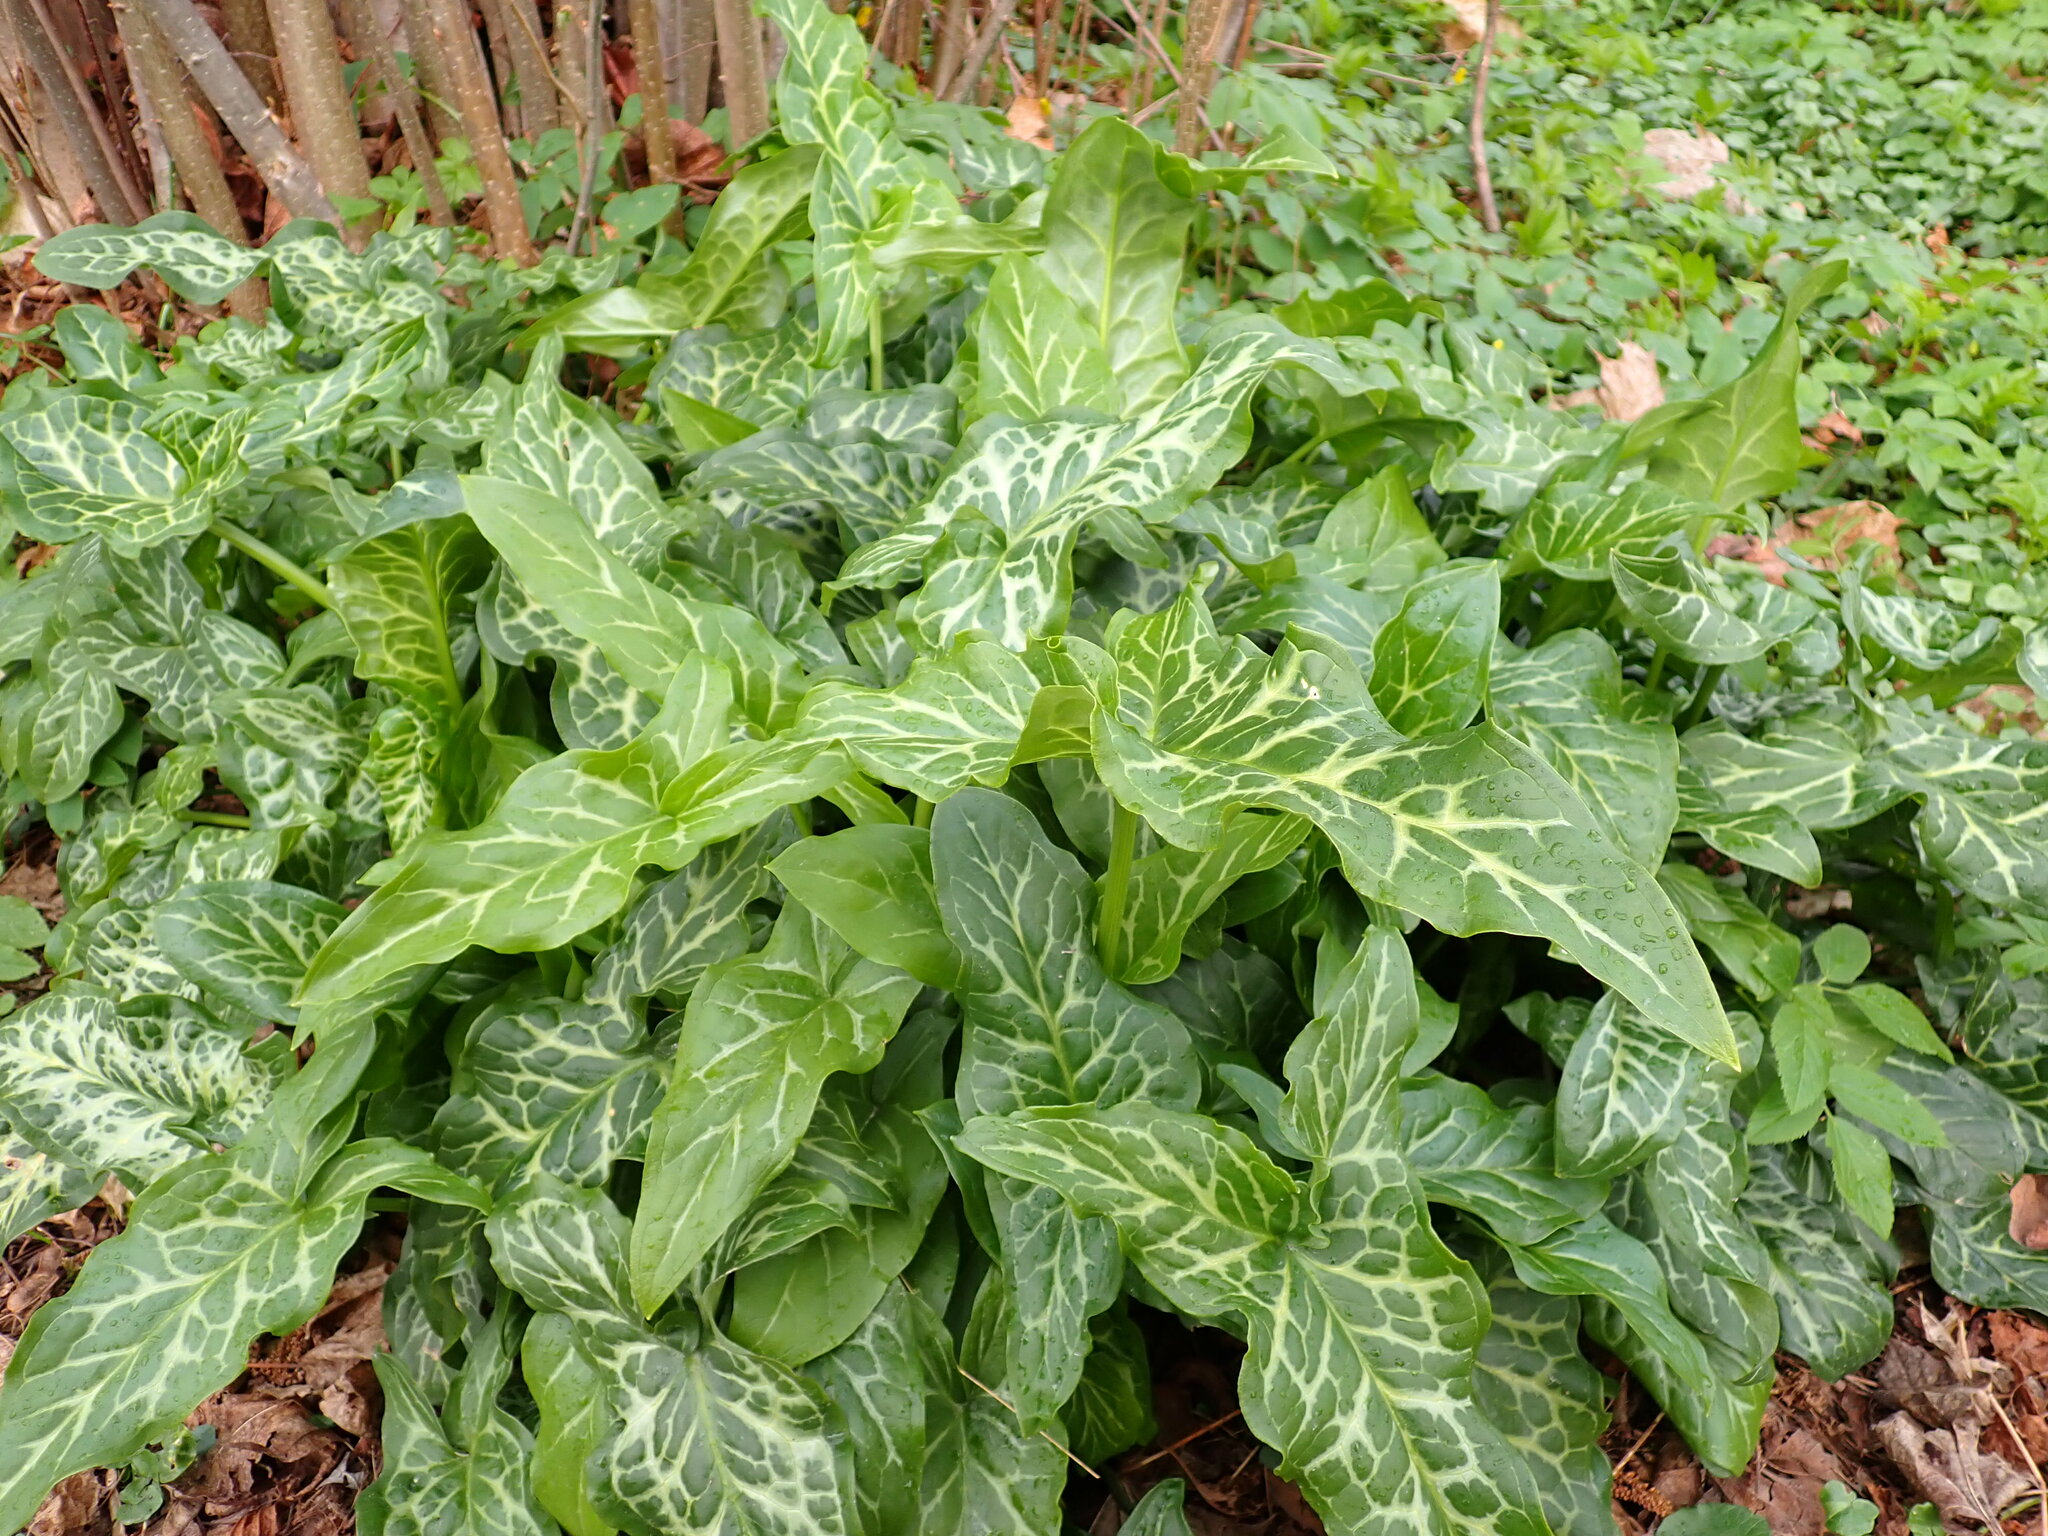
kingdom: Plantae
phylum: Tracheophyta
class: Liliopsida
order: Alismatales
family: Araceae
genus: Arum
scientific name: Arum italicum
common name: Italian lords-and-ladies
